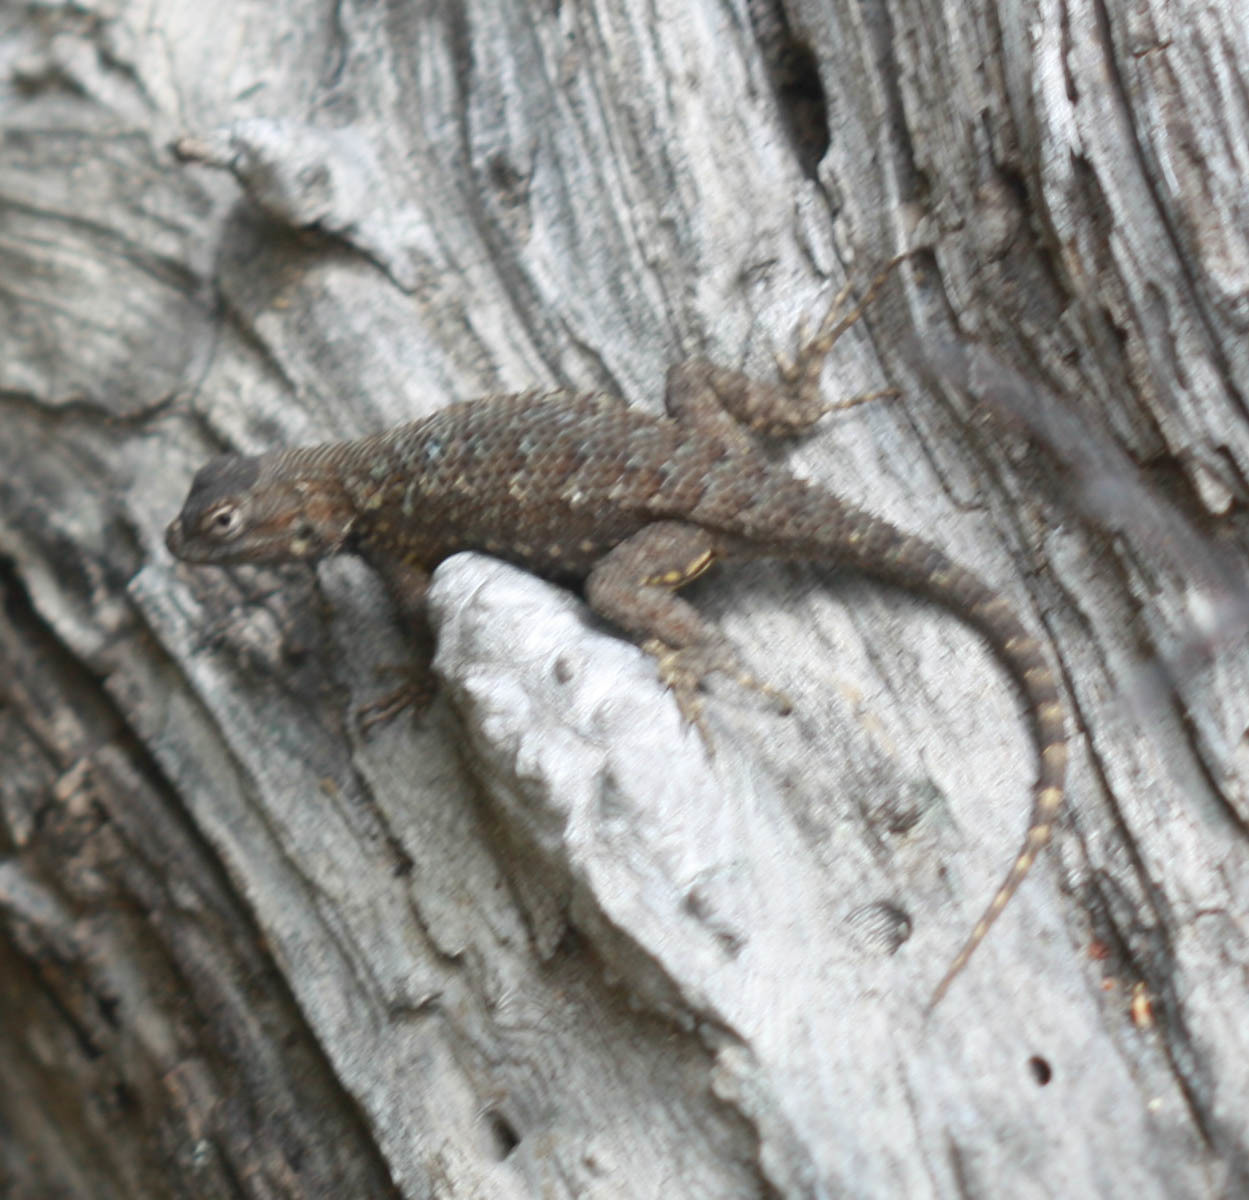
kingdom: Animalia
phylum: Chordata
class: Squamata
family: Phrynosomatidae
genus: Sceloporus
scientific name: Sceloporus occidentalis
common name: Western fence lizard
